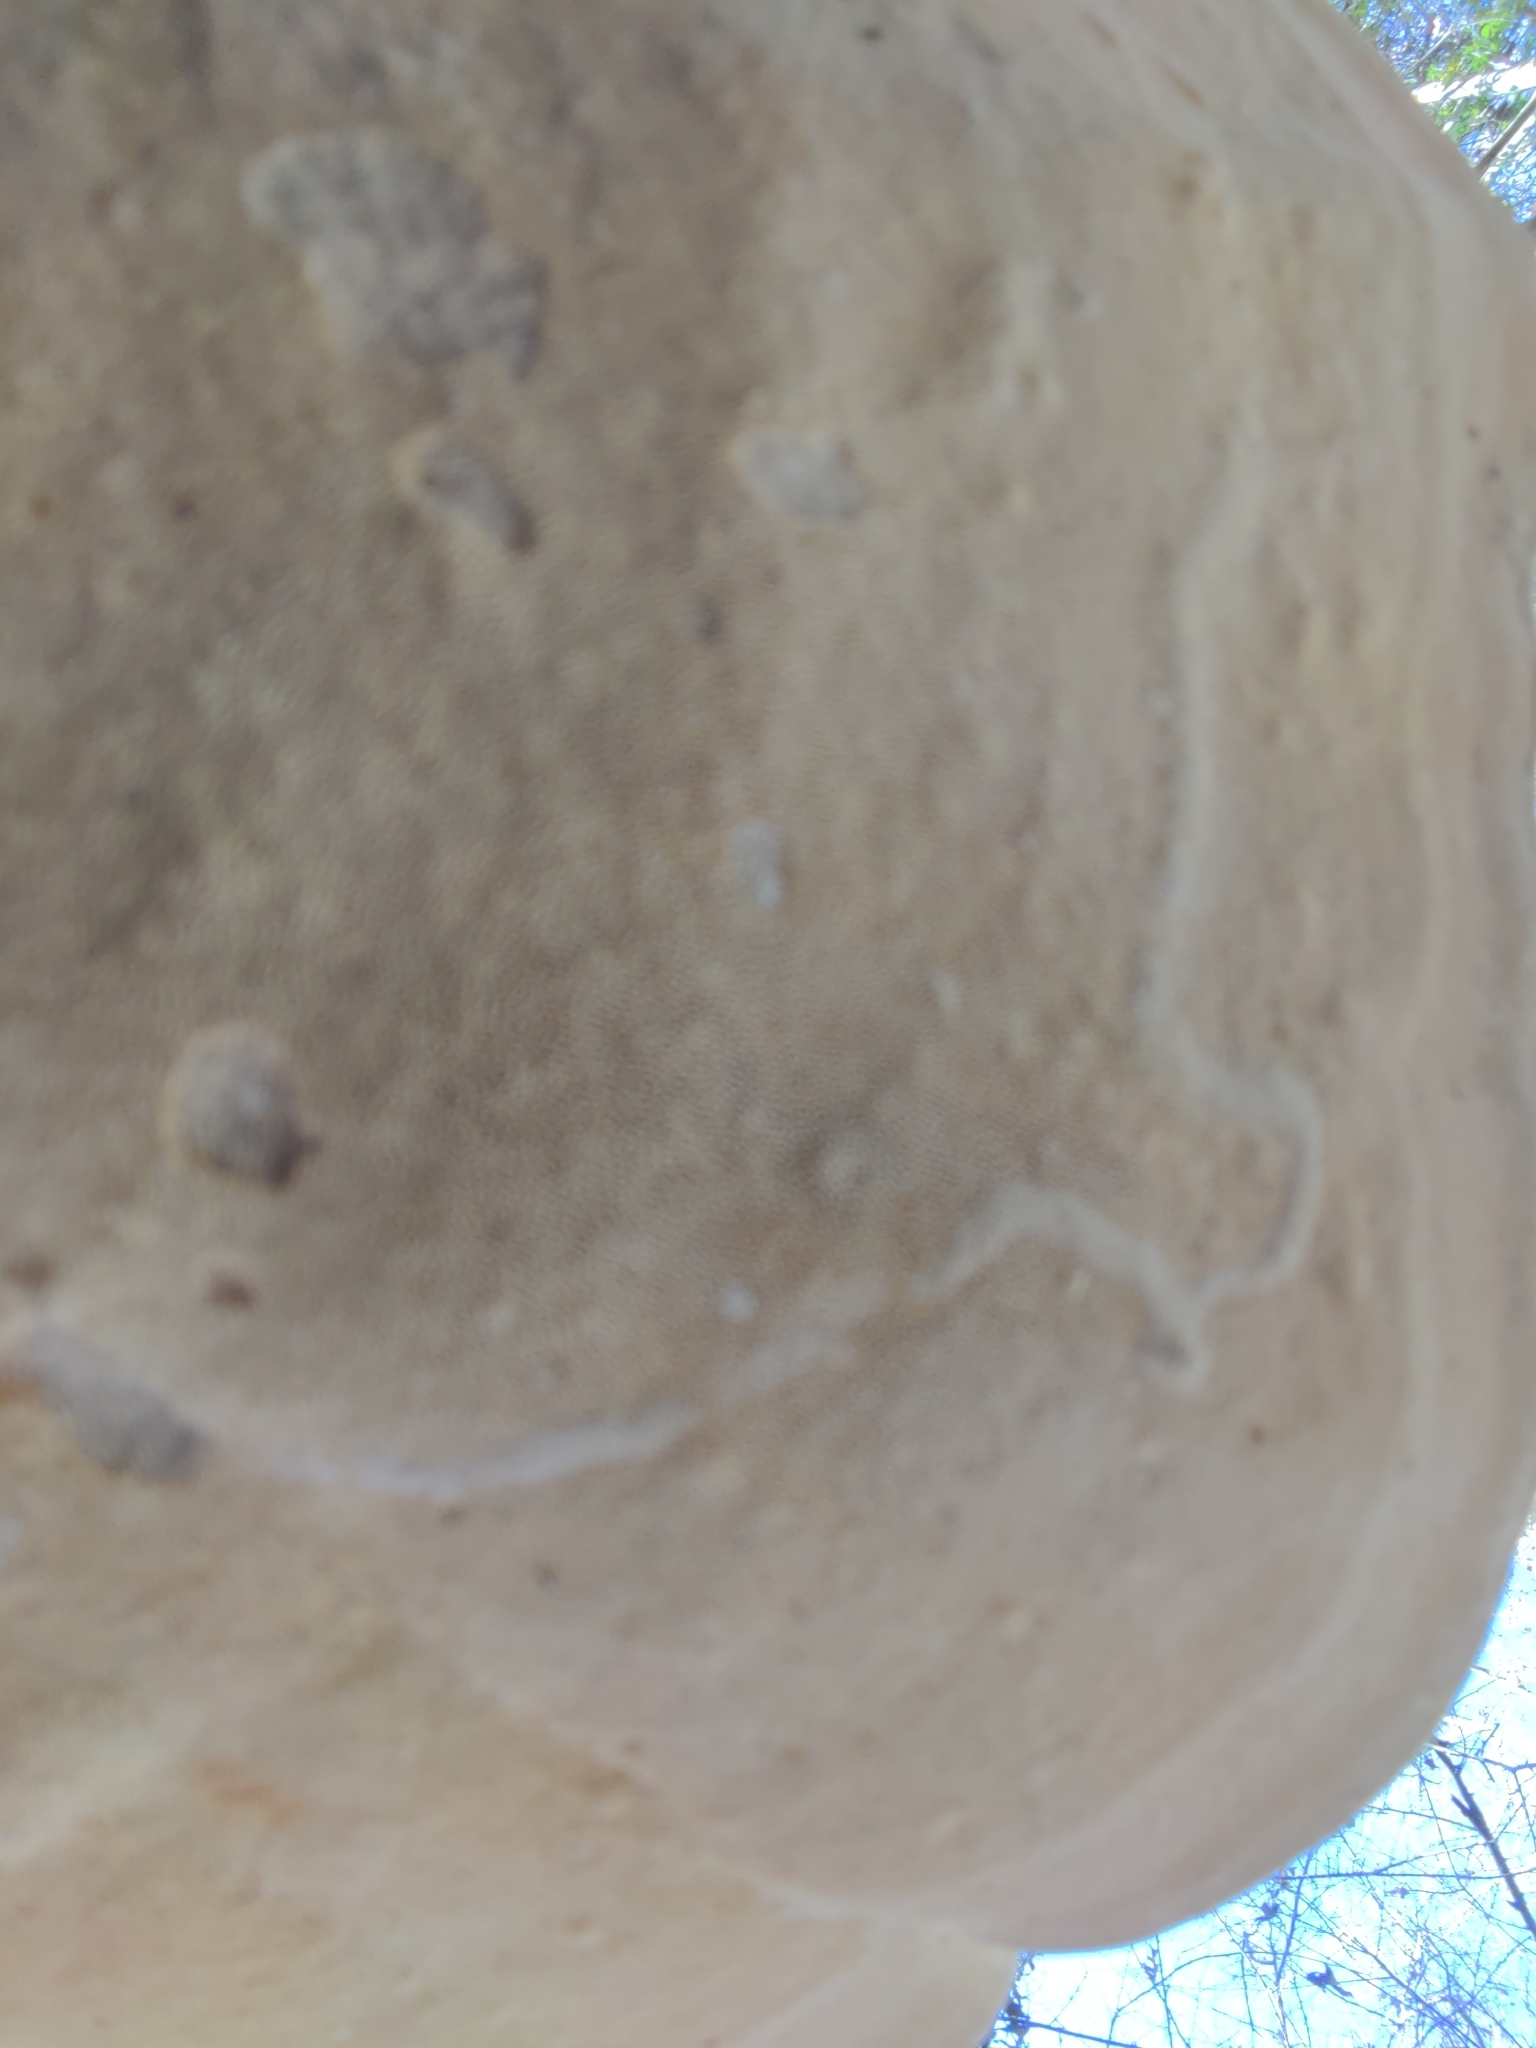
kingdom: Fungi
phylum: Basidiomycota
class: Agaricomycetes
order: Polyporales
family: Polyporaceae
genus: Trametes
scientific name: Trametes
